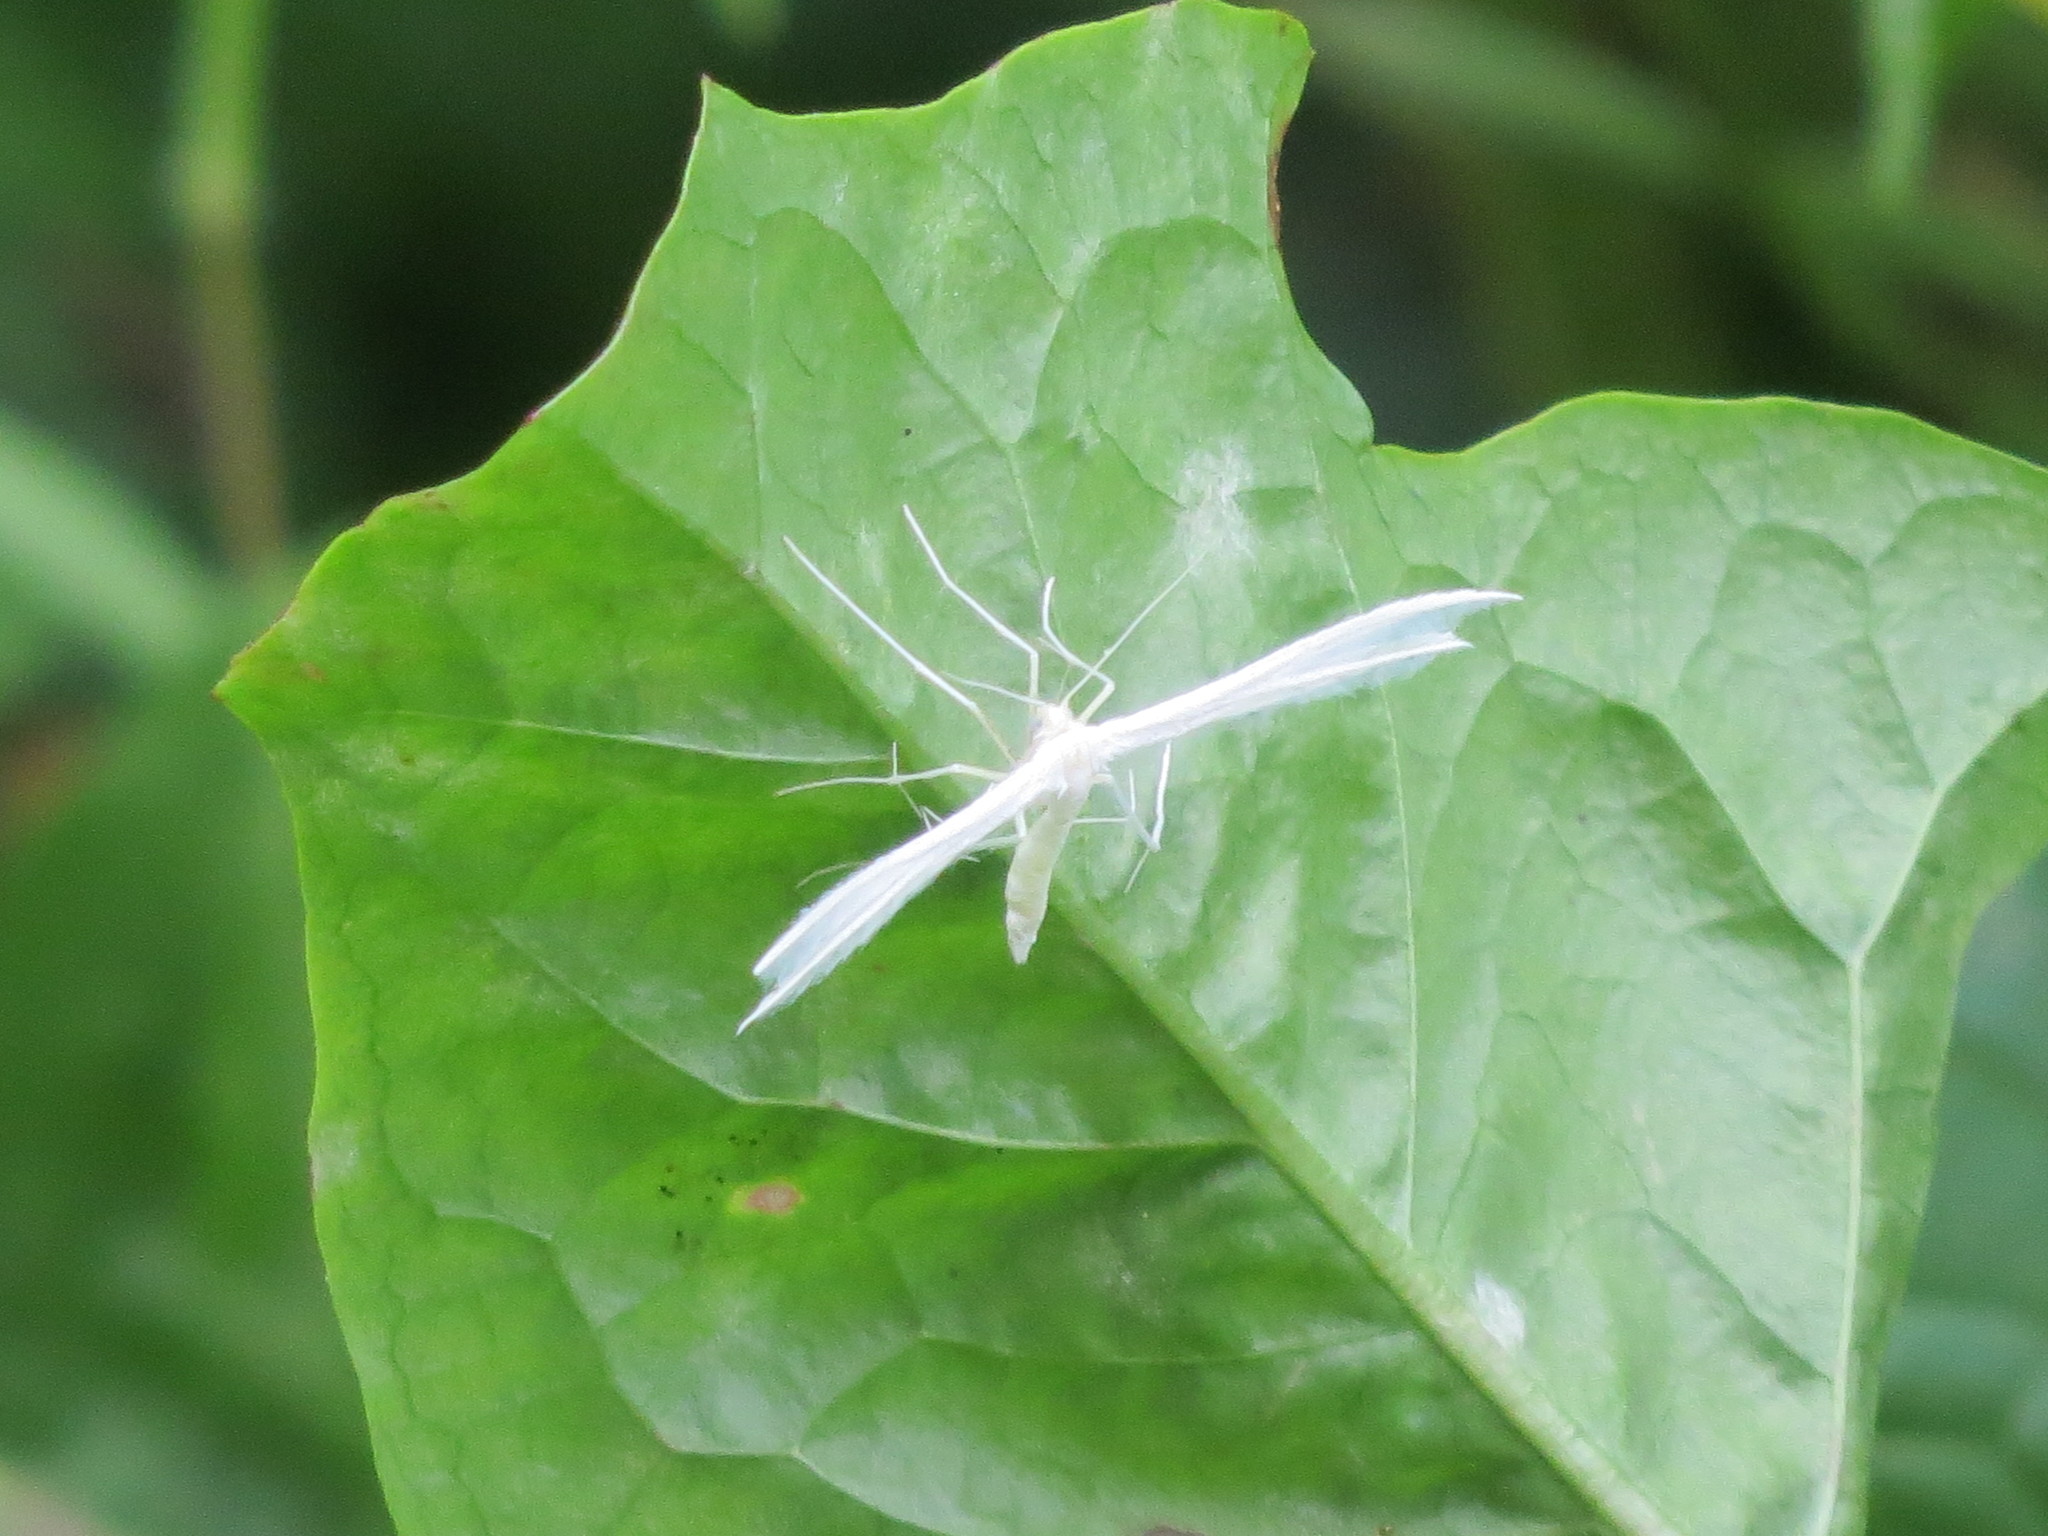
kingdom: Animalia
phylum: Arthropoda
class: Insecta
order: Lepidoptera
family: Pterophoridae
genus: Pterophorus
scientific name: Pterophorus pentadactyla
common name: White plume moth
